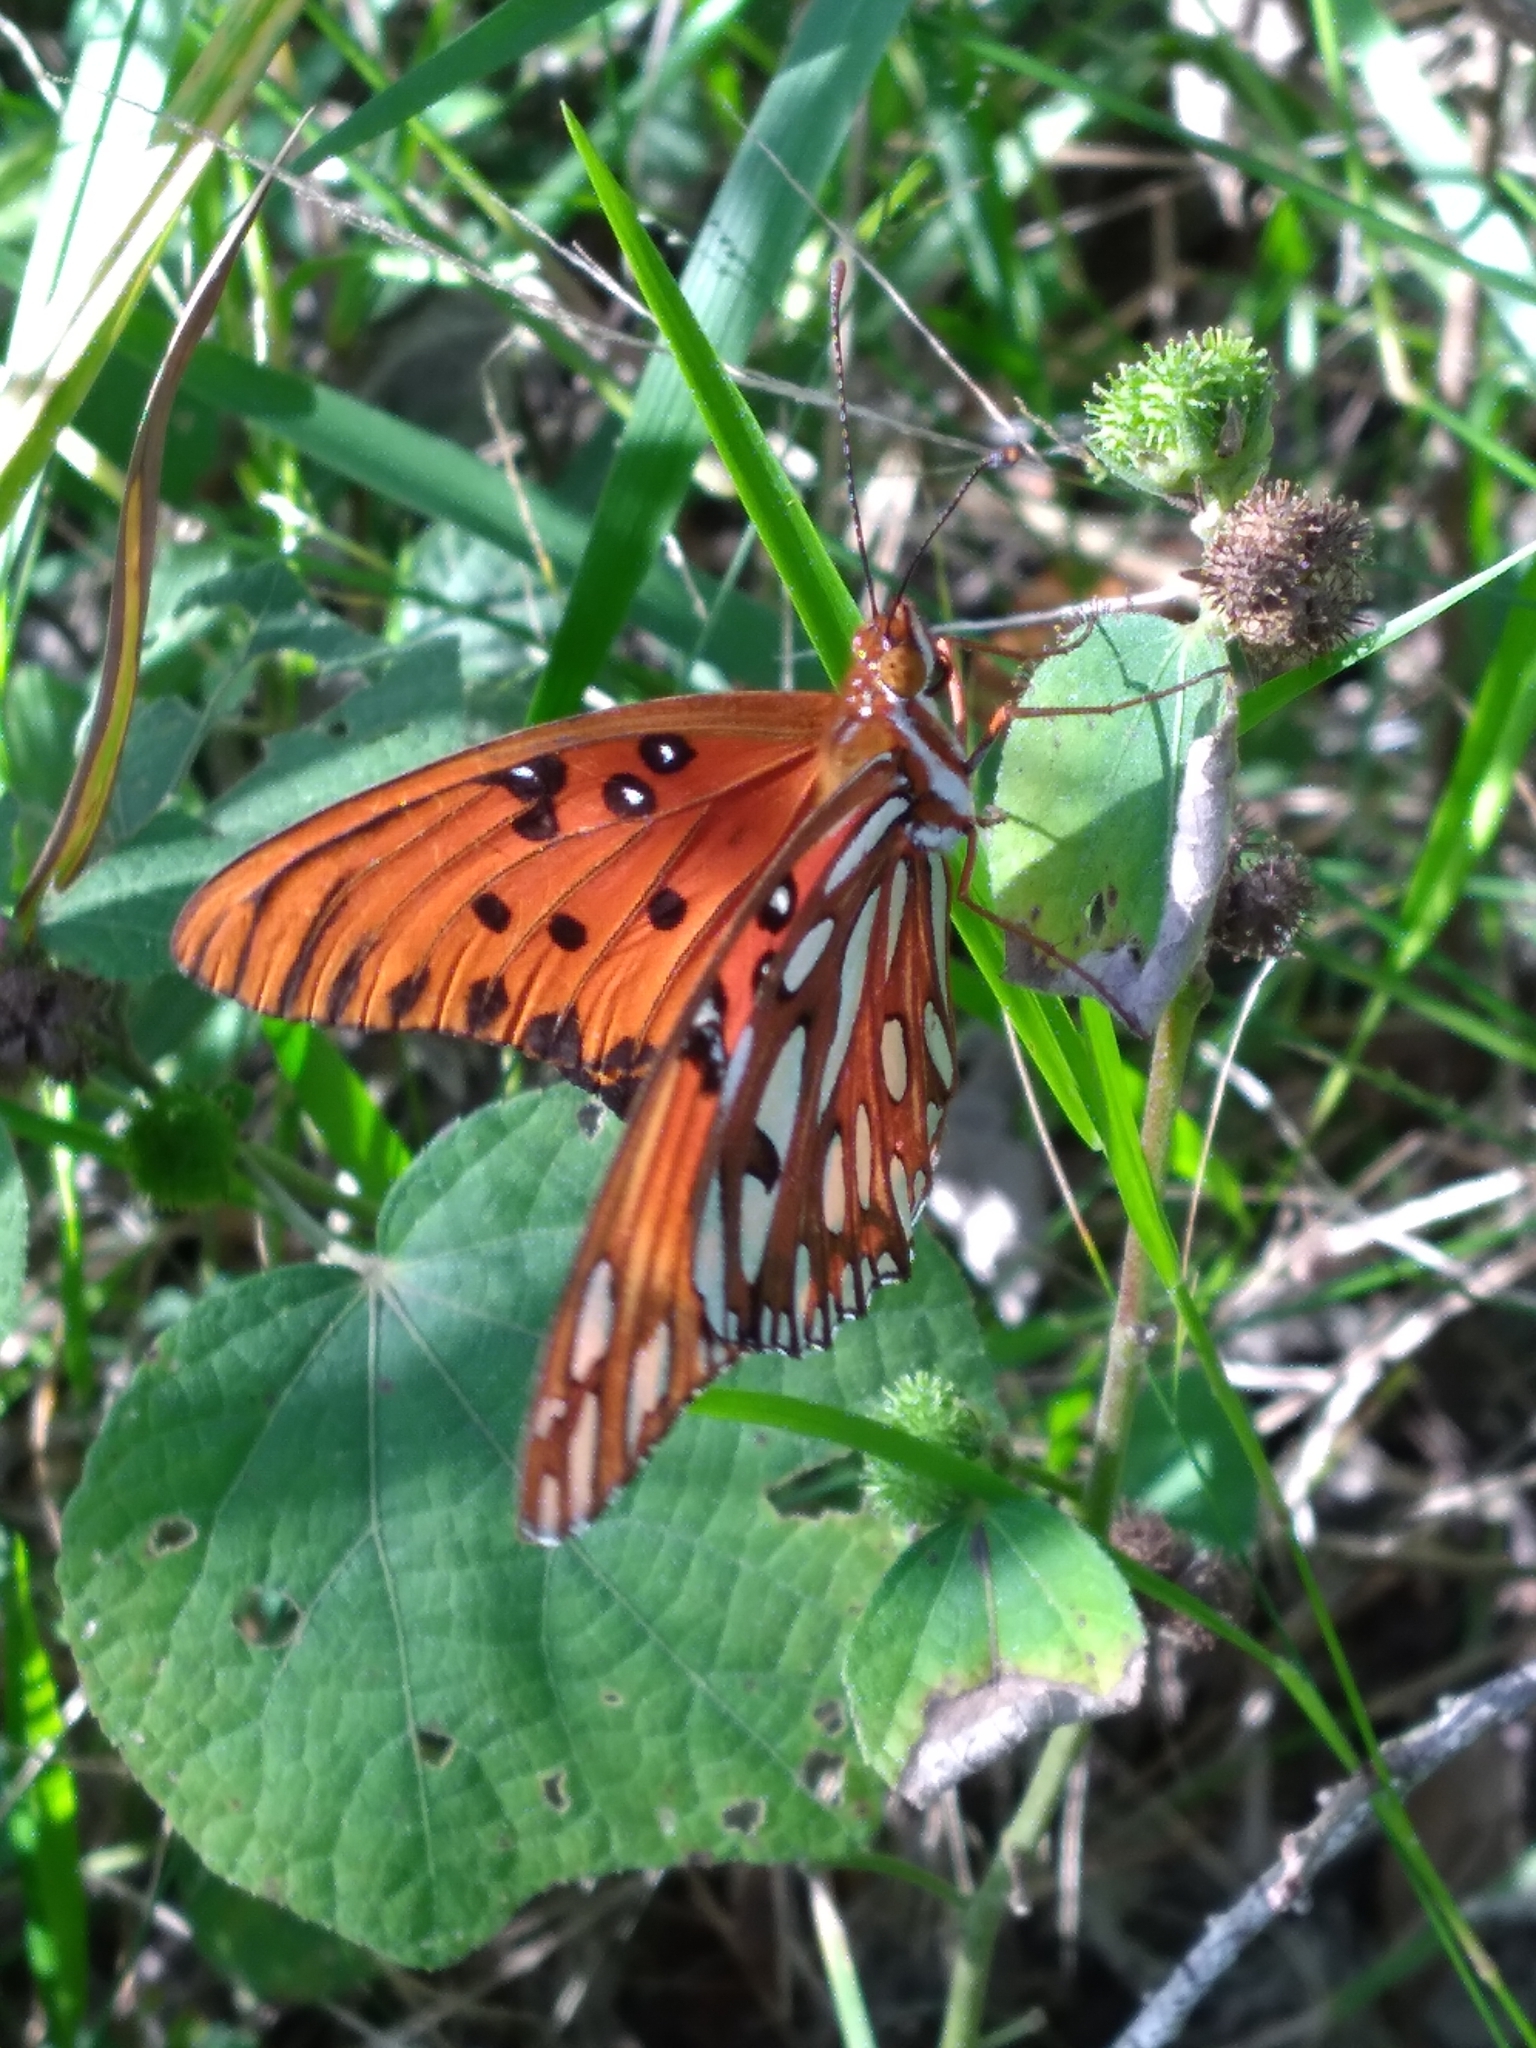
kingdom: Animalia
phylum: Arthropoda
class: Insecta
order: Lepidoptera
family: Nymphalidae
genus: Dione
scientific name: Dione vanillae
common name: Gulf fritillary
